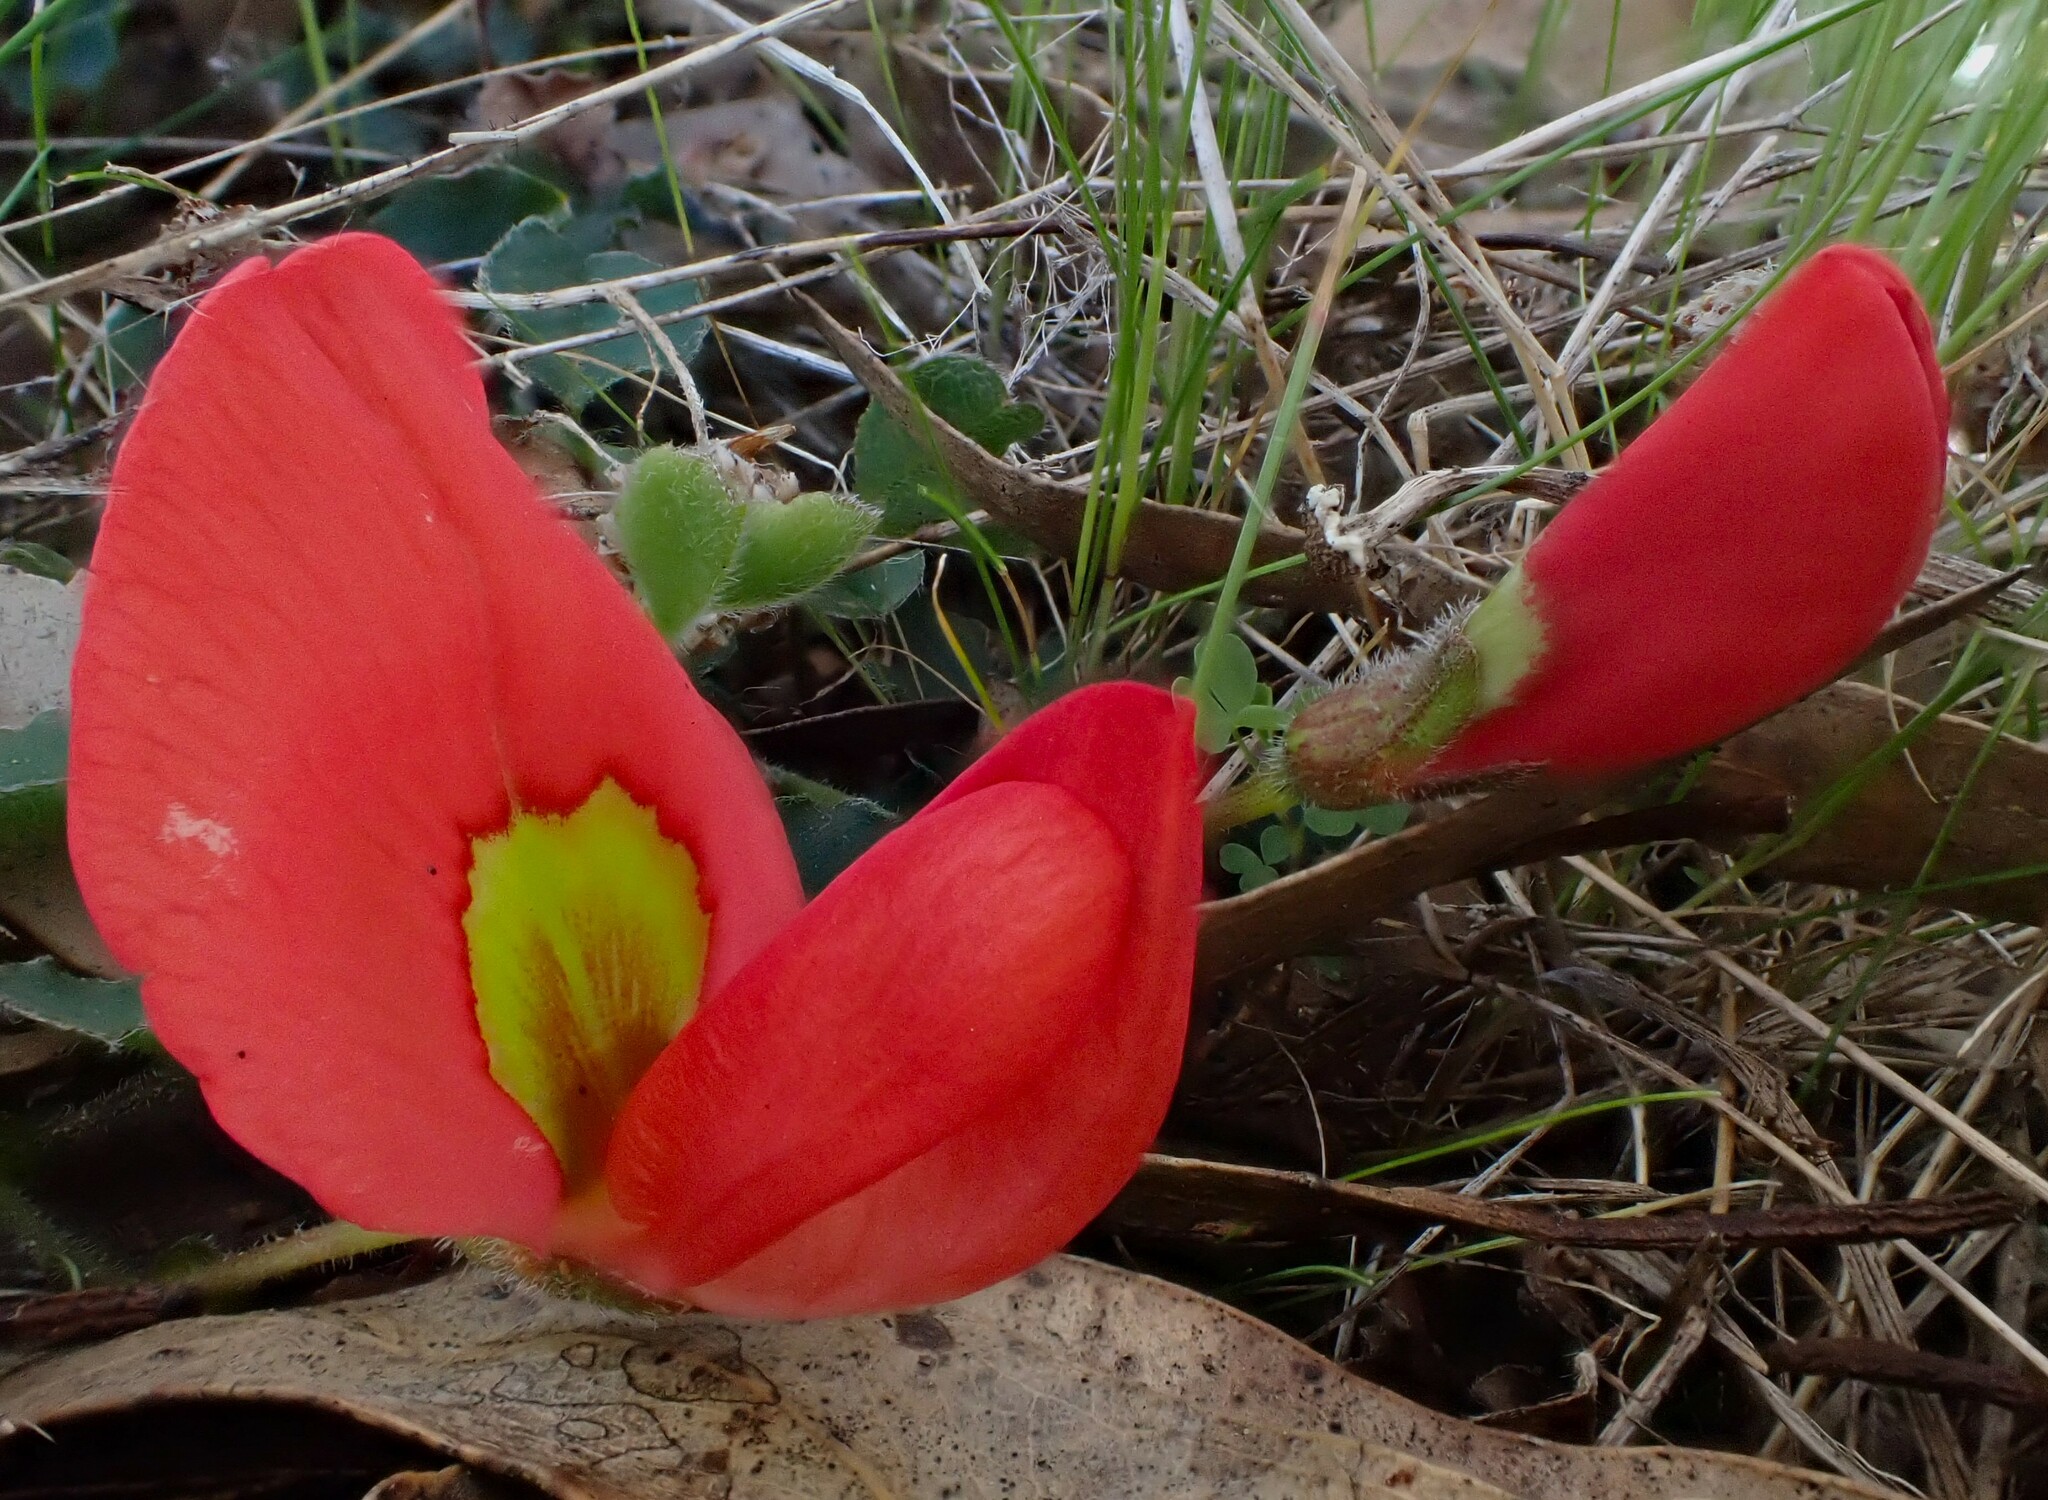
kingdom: Plantae
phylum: Tracheophyta
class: Magnoliopsida
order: Fabales
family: Fabaceae
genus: Kennedia
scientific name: Kennedia prostrata
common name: Running-postman
